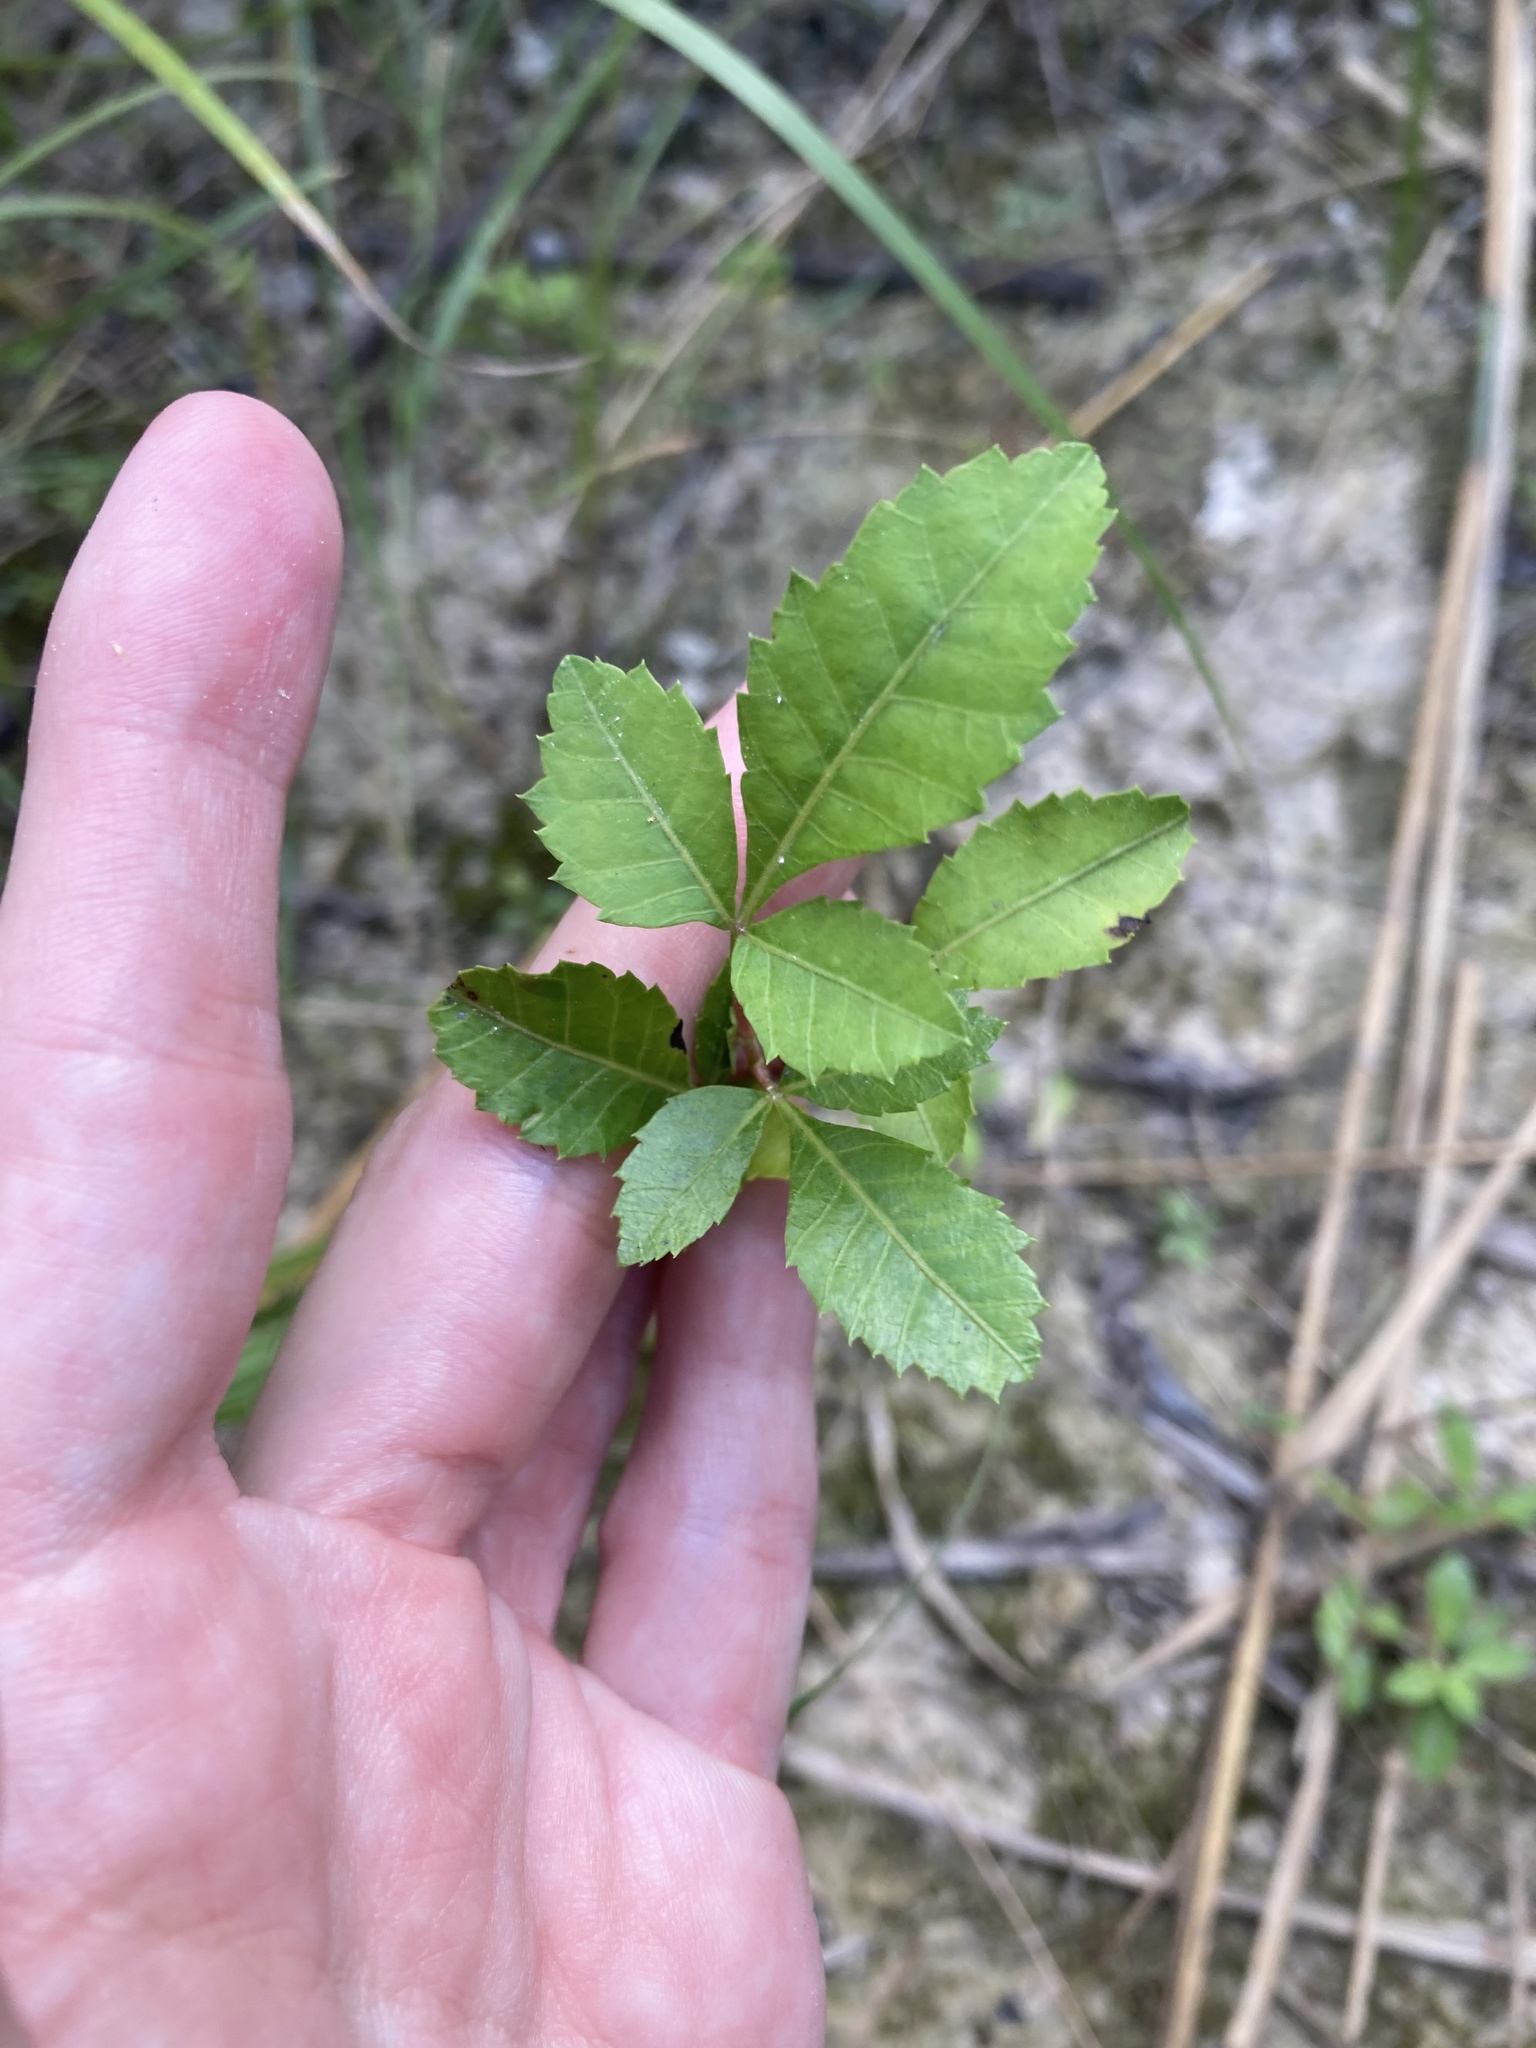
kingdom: Plantae
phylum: Tracheophyta
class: Magnoliopsida
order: Sapindales
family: Anacardiaceae
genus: Schinus
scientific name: Schinus terebinthifolia
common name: Brazilian peppertree
